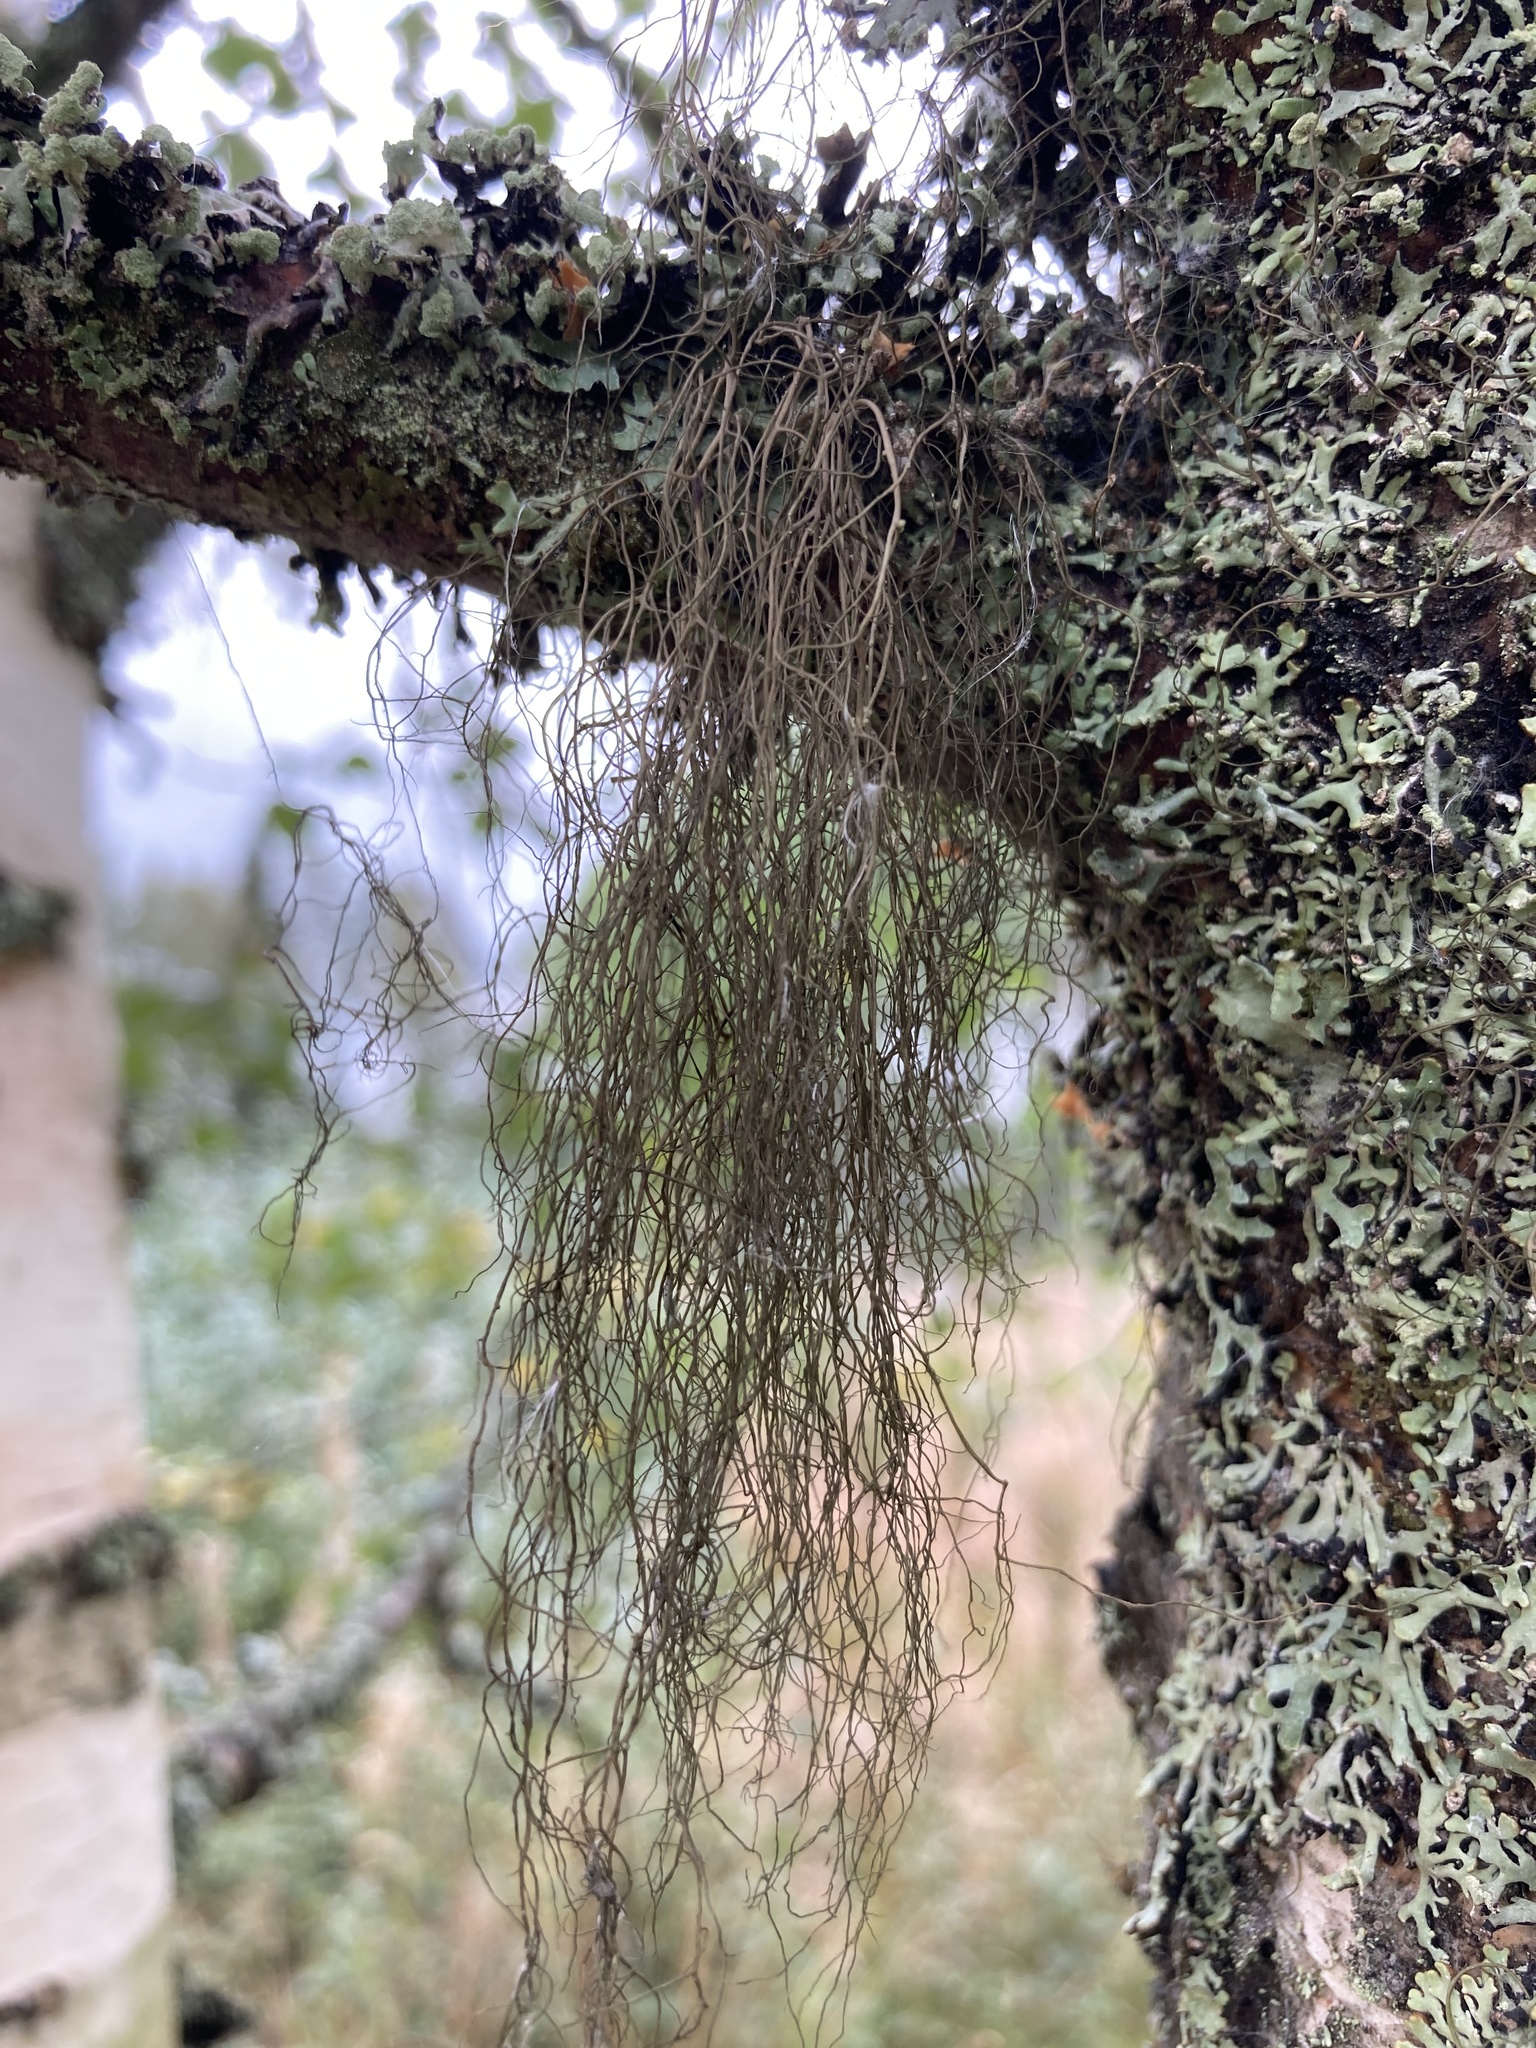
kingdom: Fungi
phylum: Ascomycota
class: Lecanoromycetes
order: Lecanorales
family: Parmeliaceae
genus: Bryoria
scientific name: Bryoria fuscescens
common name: Pale-footed horsehair lichen
